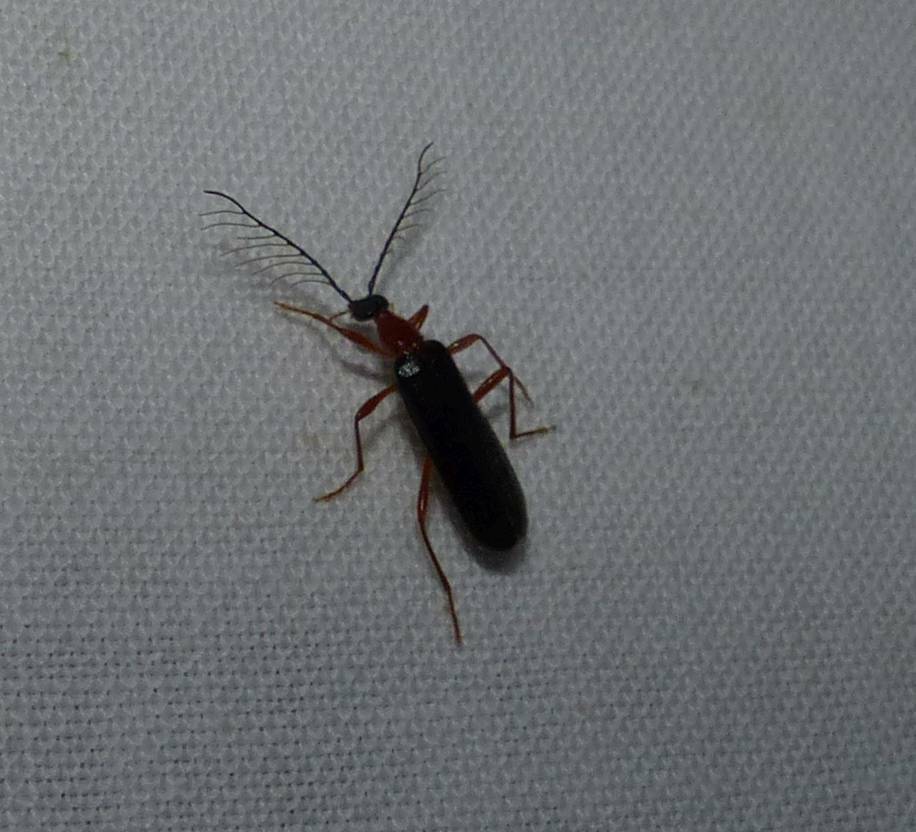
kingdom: Animalia
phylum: Arthropoda
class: Insecta
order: Coleoptera
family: Pyrochroidae
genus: Dendroides
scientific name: Dendroides canadensis
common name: Canada fire-colored beetle
